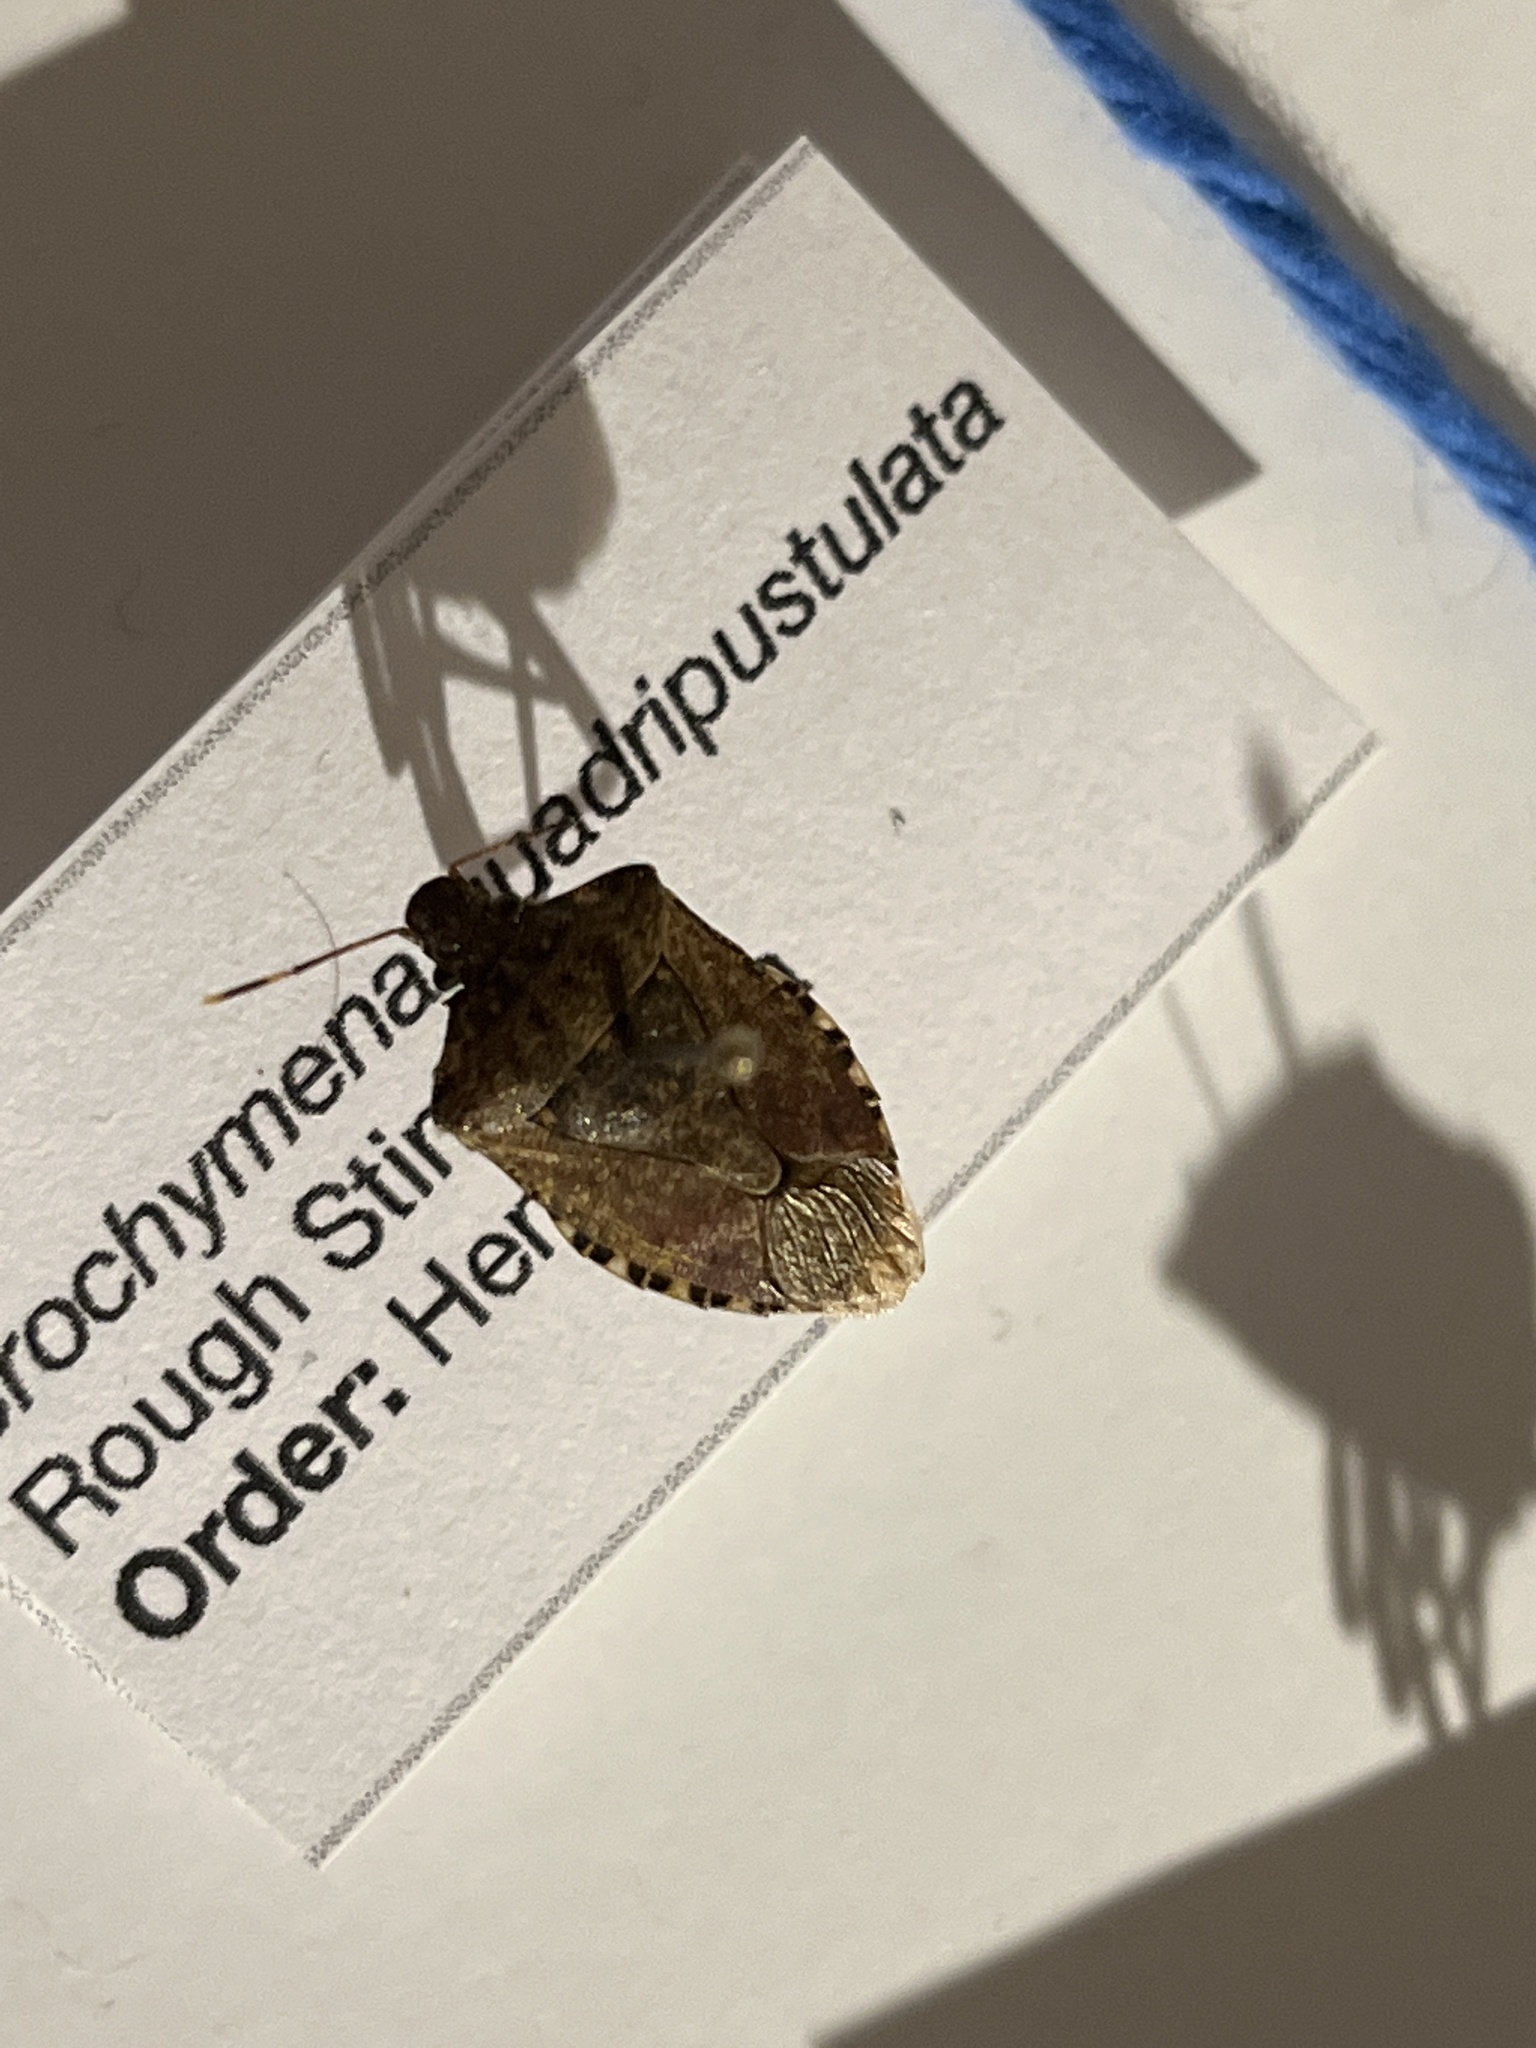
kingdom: Animalia
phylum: Arthropoda
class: Insecta
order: Hemiptera
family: Pentatomidae
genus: Halyomorpha
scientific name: Halyomorpha halys
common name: Brown marmorated stink bug
